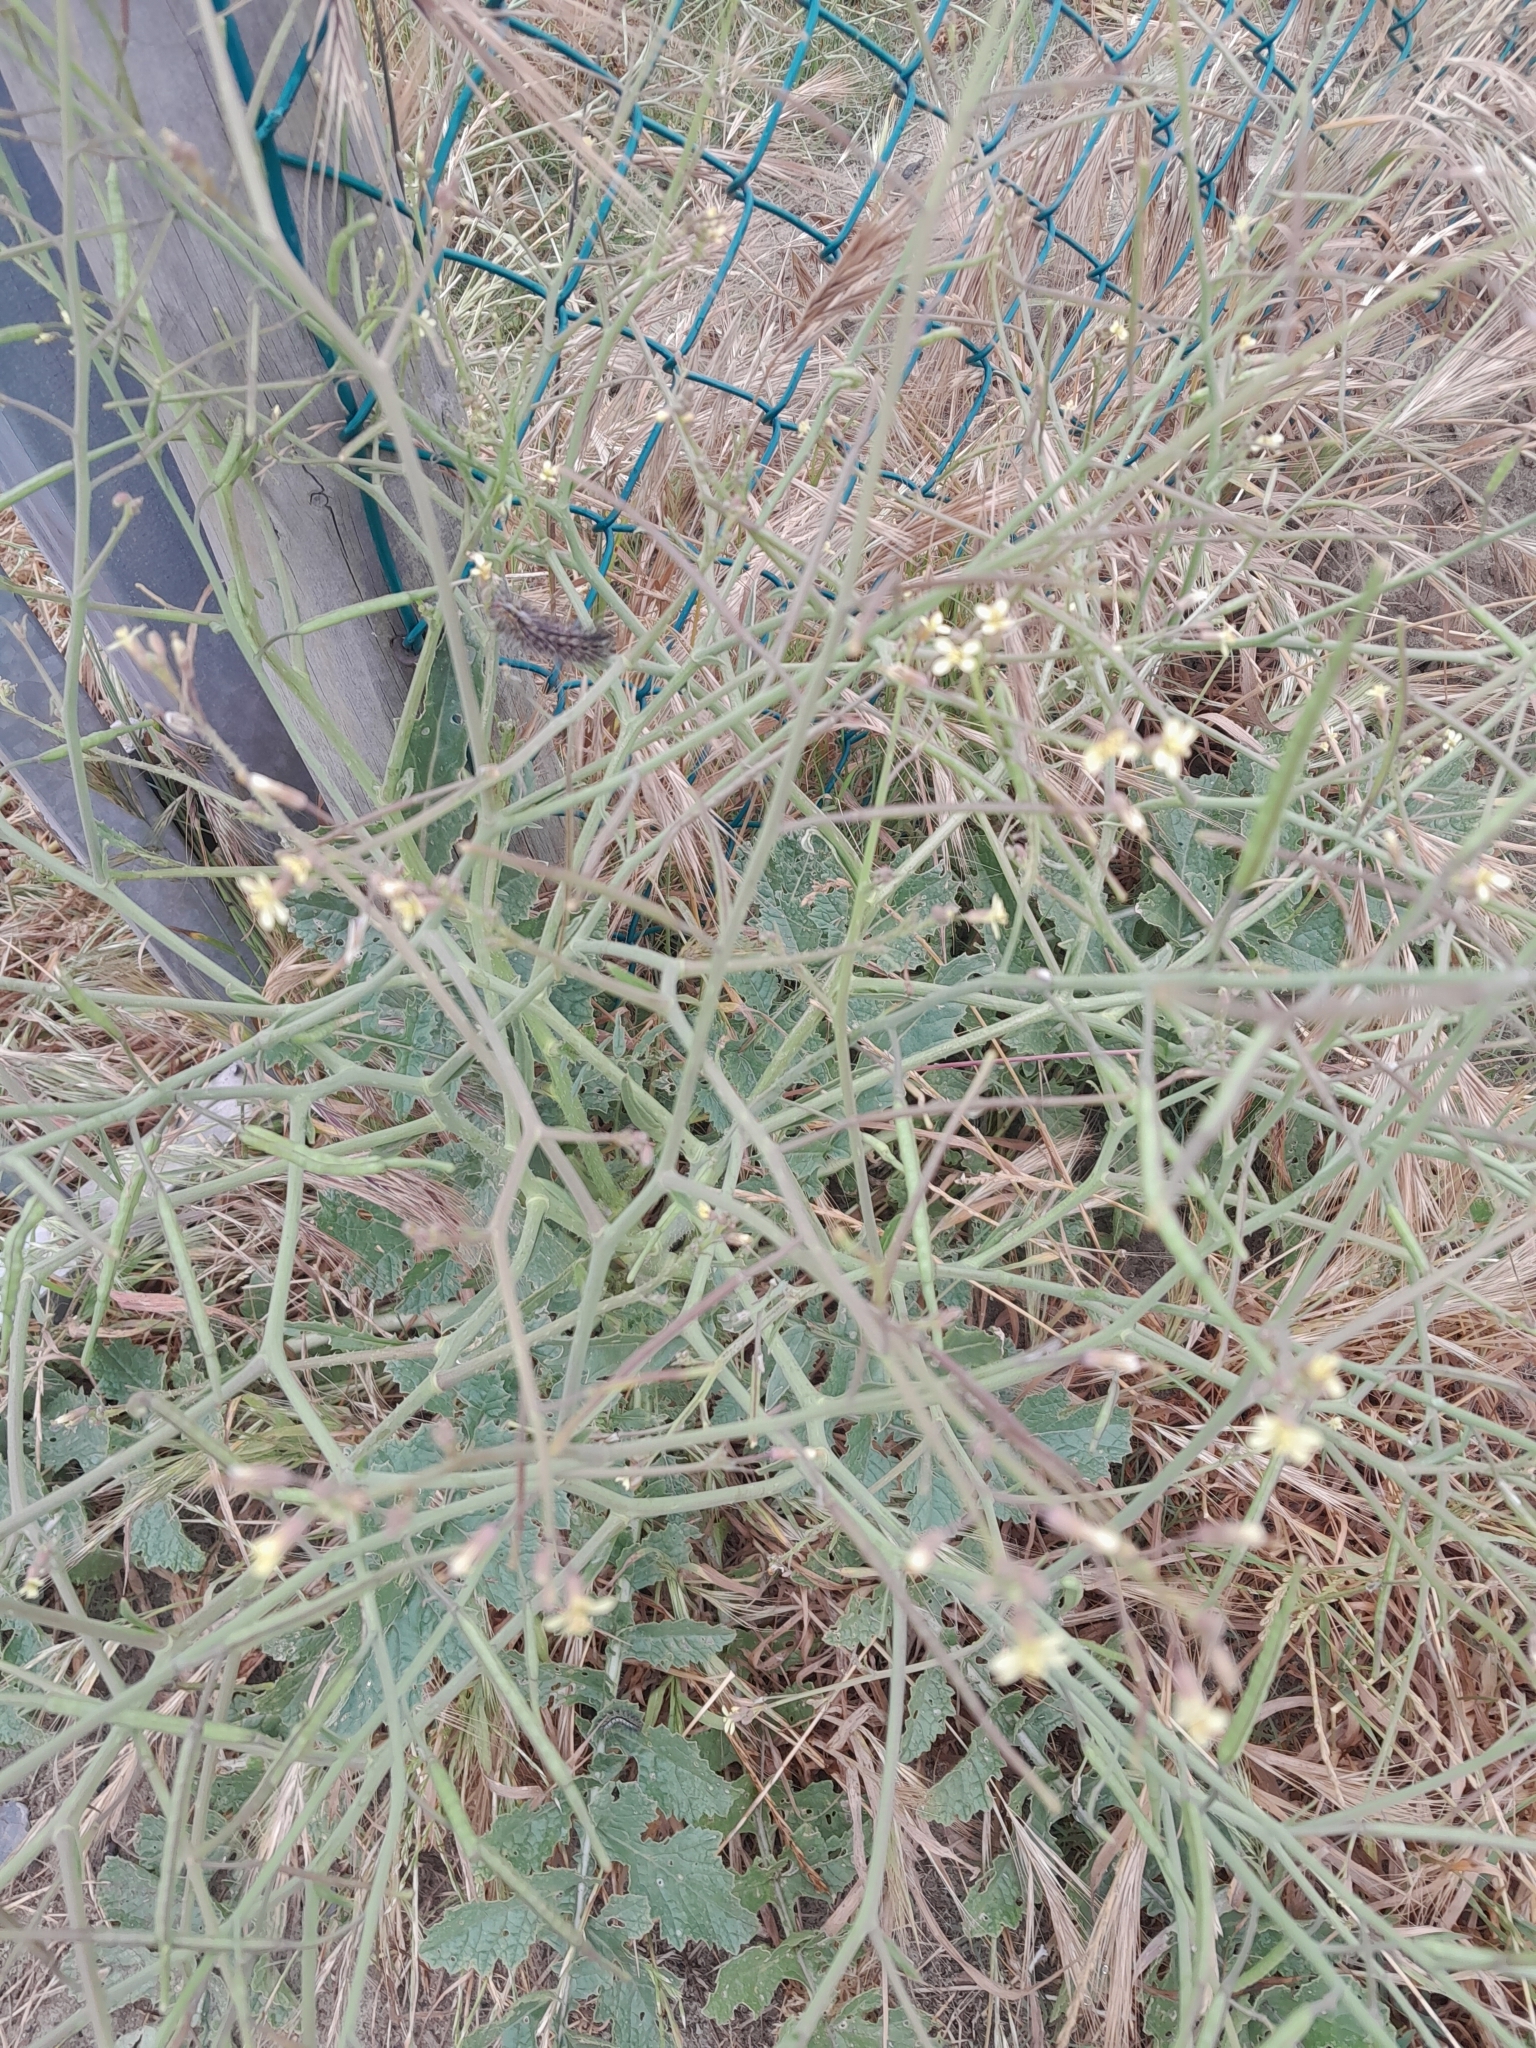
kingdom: Plantae
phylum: Tracheophyta
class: Magnoliopsida
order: Brassicales
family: Brassicaceae
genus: Brassica
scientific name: Brassica tournefortii
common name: Pale cabbage
